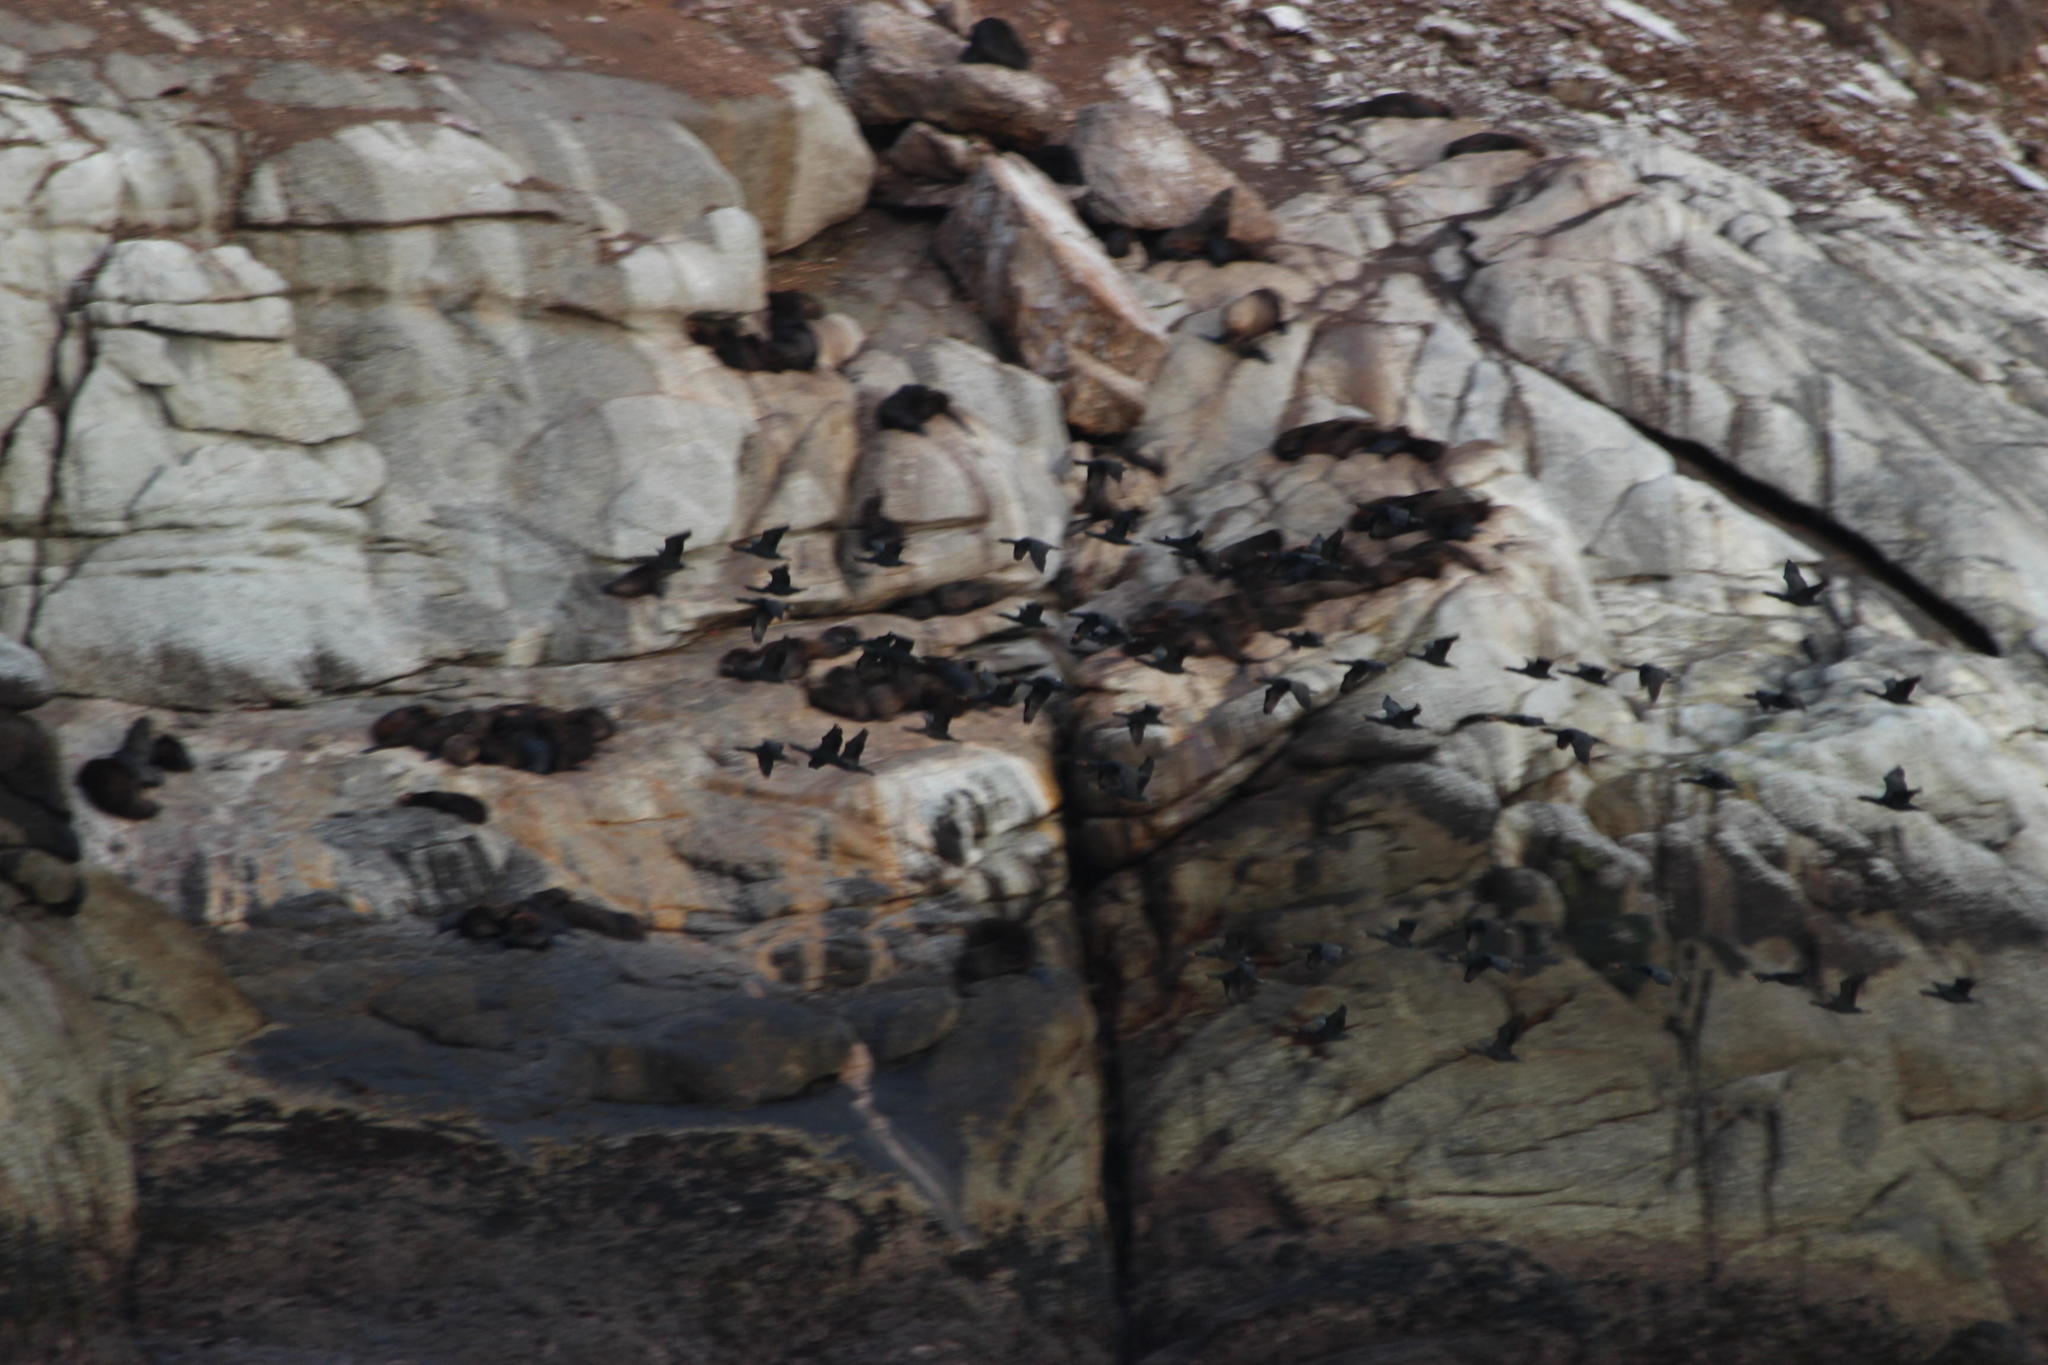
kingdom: Animalia
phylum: Chordata
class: Aves
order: Suliformes
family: Phalacrocoracidae
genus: Phalacrocorax
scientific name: Phalacrocorax capensis
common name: Cape cormorant
